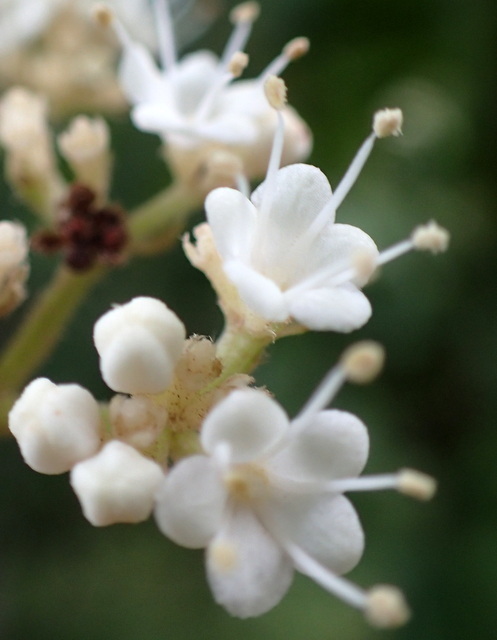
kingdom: Plantae
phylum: Tracheophyta
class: Magnoliopsida
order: Dipsacales
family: Viburnaceae
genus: Viburnum
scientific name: Viburnum scabrellum
